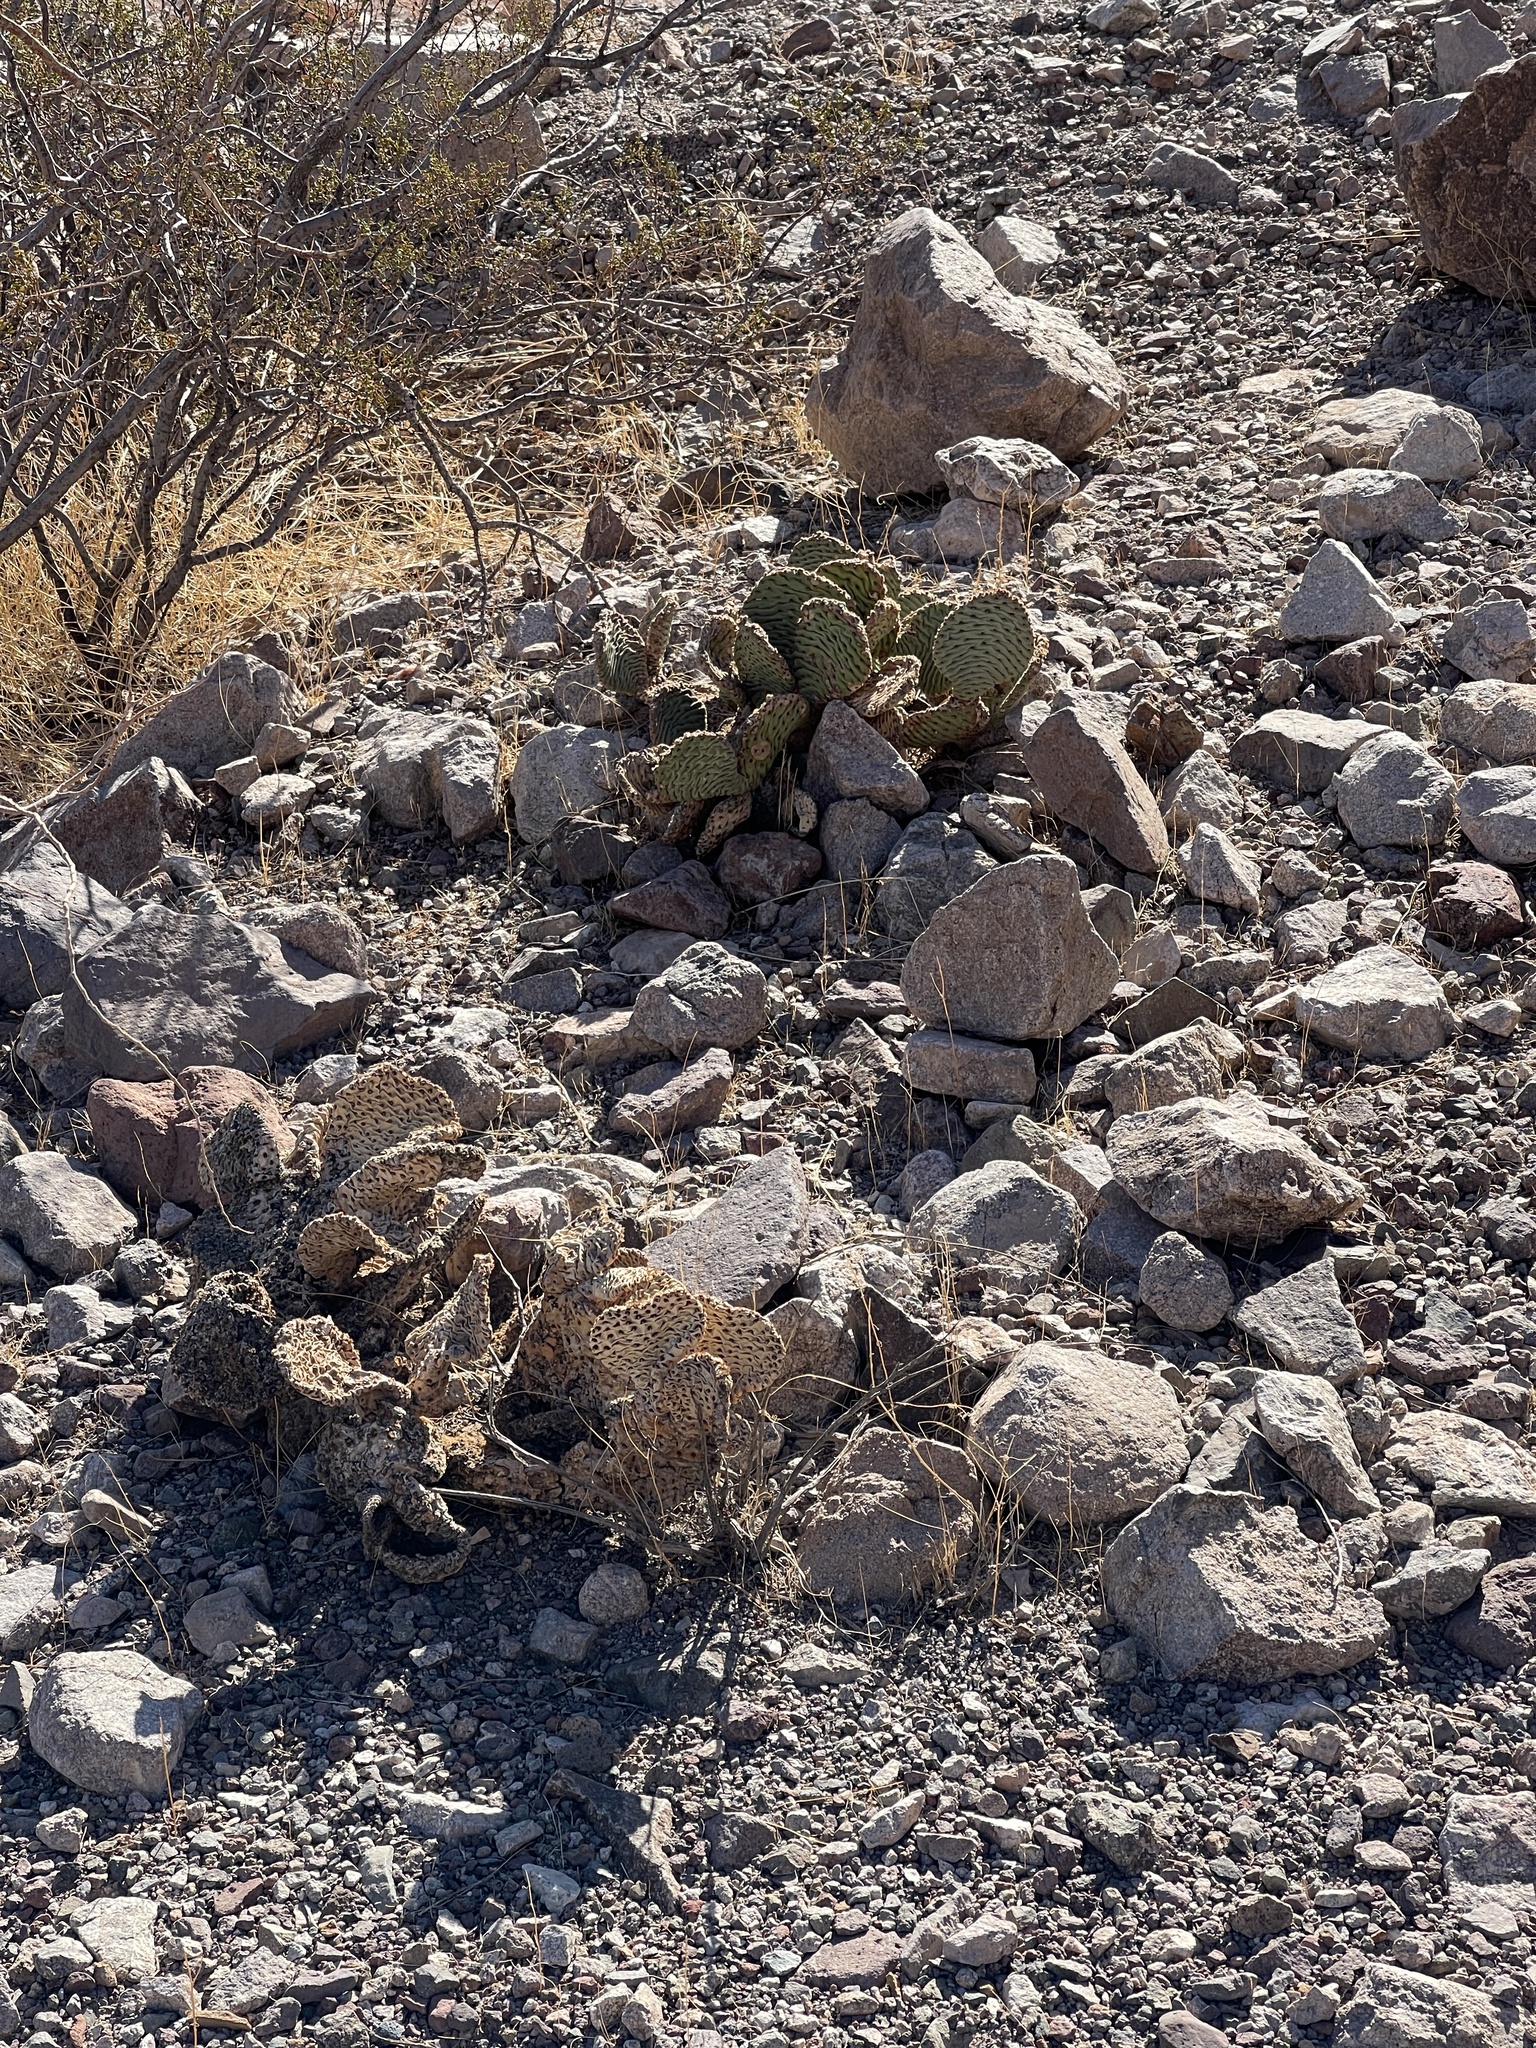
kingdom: Plantae
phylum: Tracheophyta
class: Magnoliopsida
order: Caryophyllales
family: Cactaceae
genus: Opuntia
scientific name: Opuntia basilaris
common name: Beavertail prickly-pear
